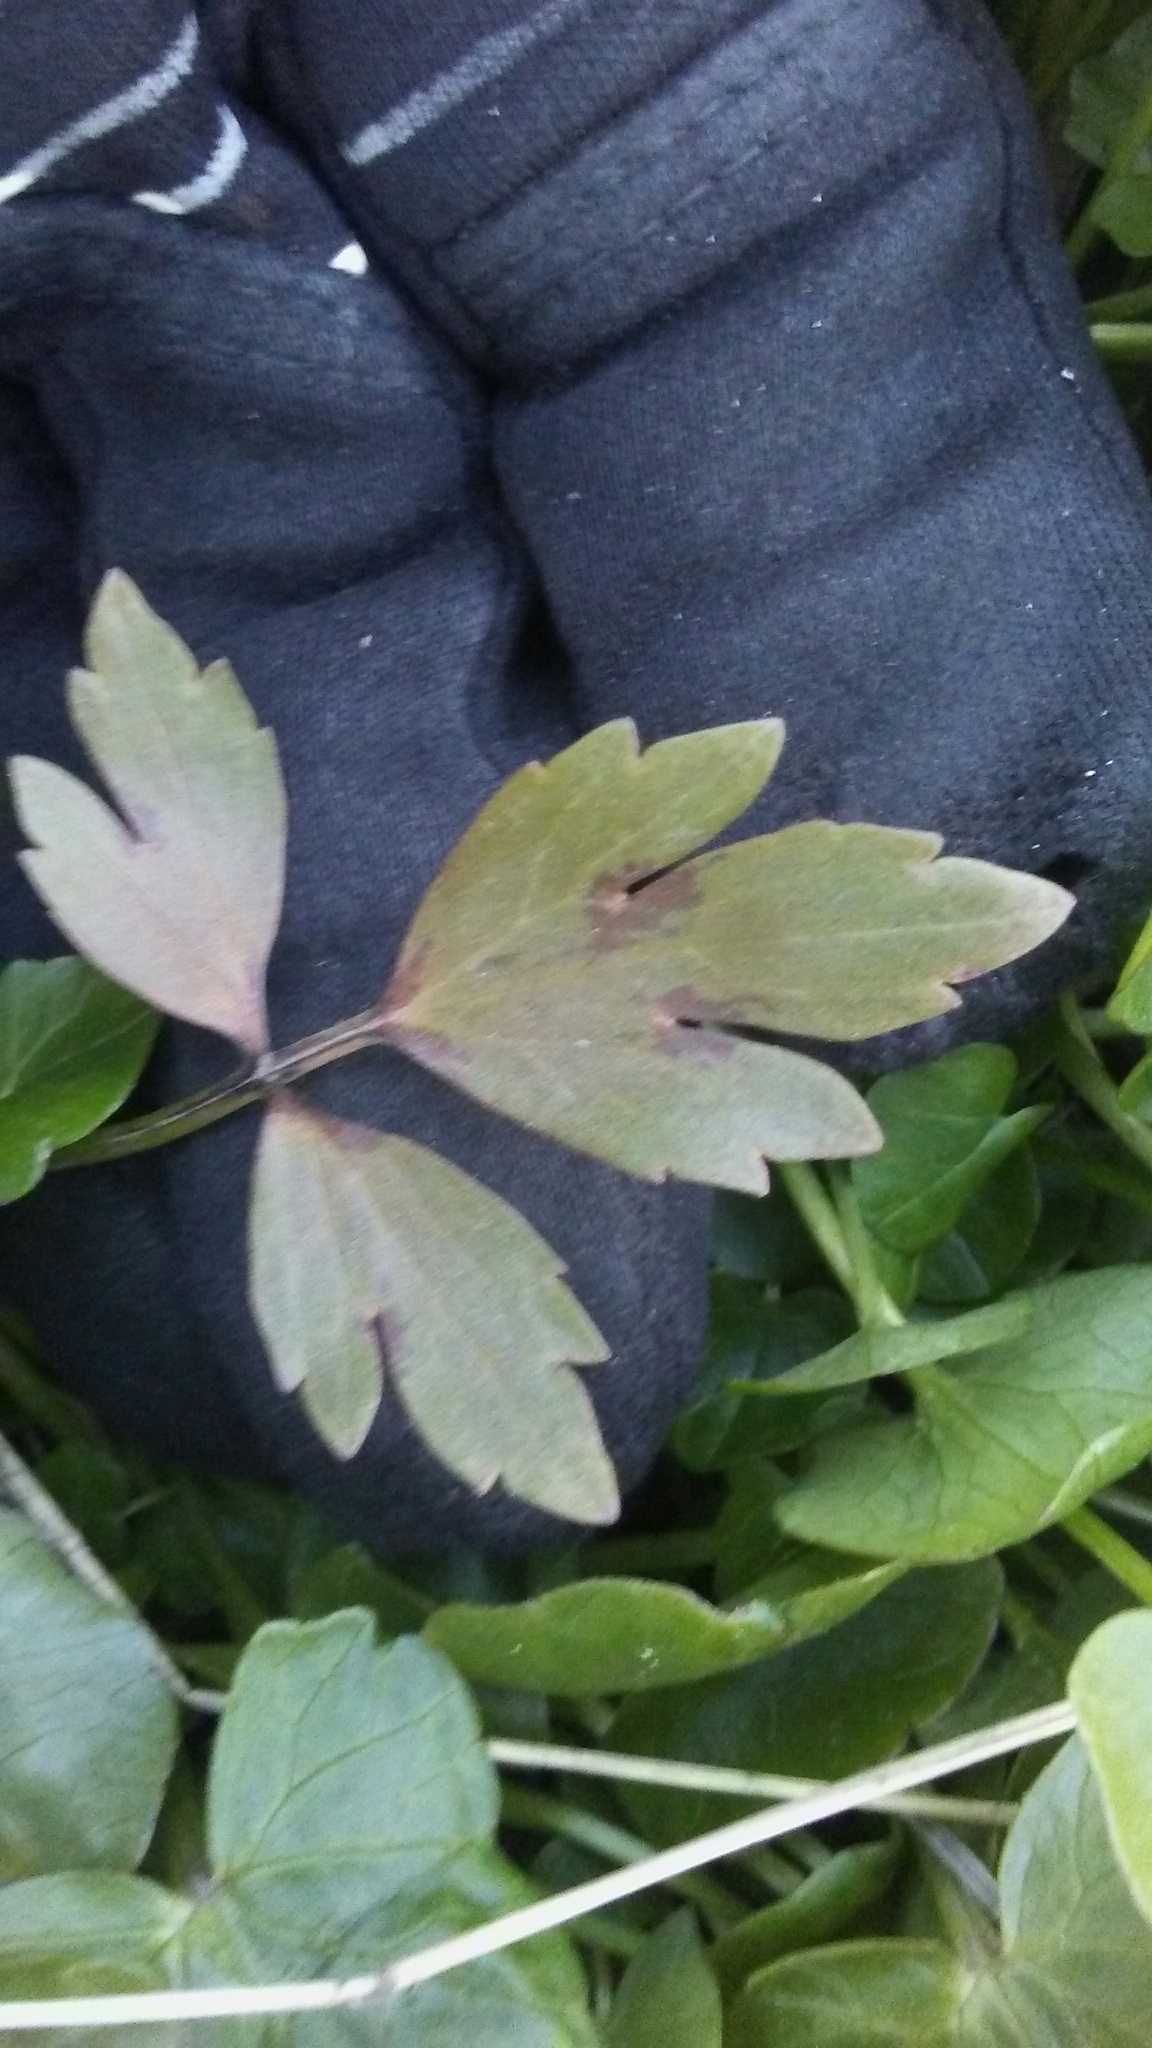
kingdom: Plantae
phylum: Tracheophyta
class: Magnoliopsida
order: Ranunculales
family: Ranunculaceae
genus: Ranunculus
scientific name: Ranunculus hispidus
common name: Bristly buttercup
